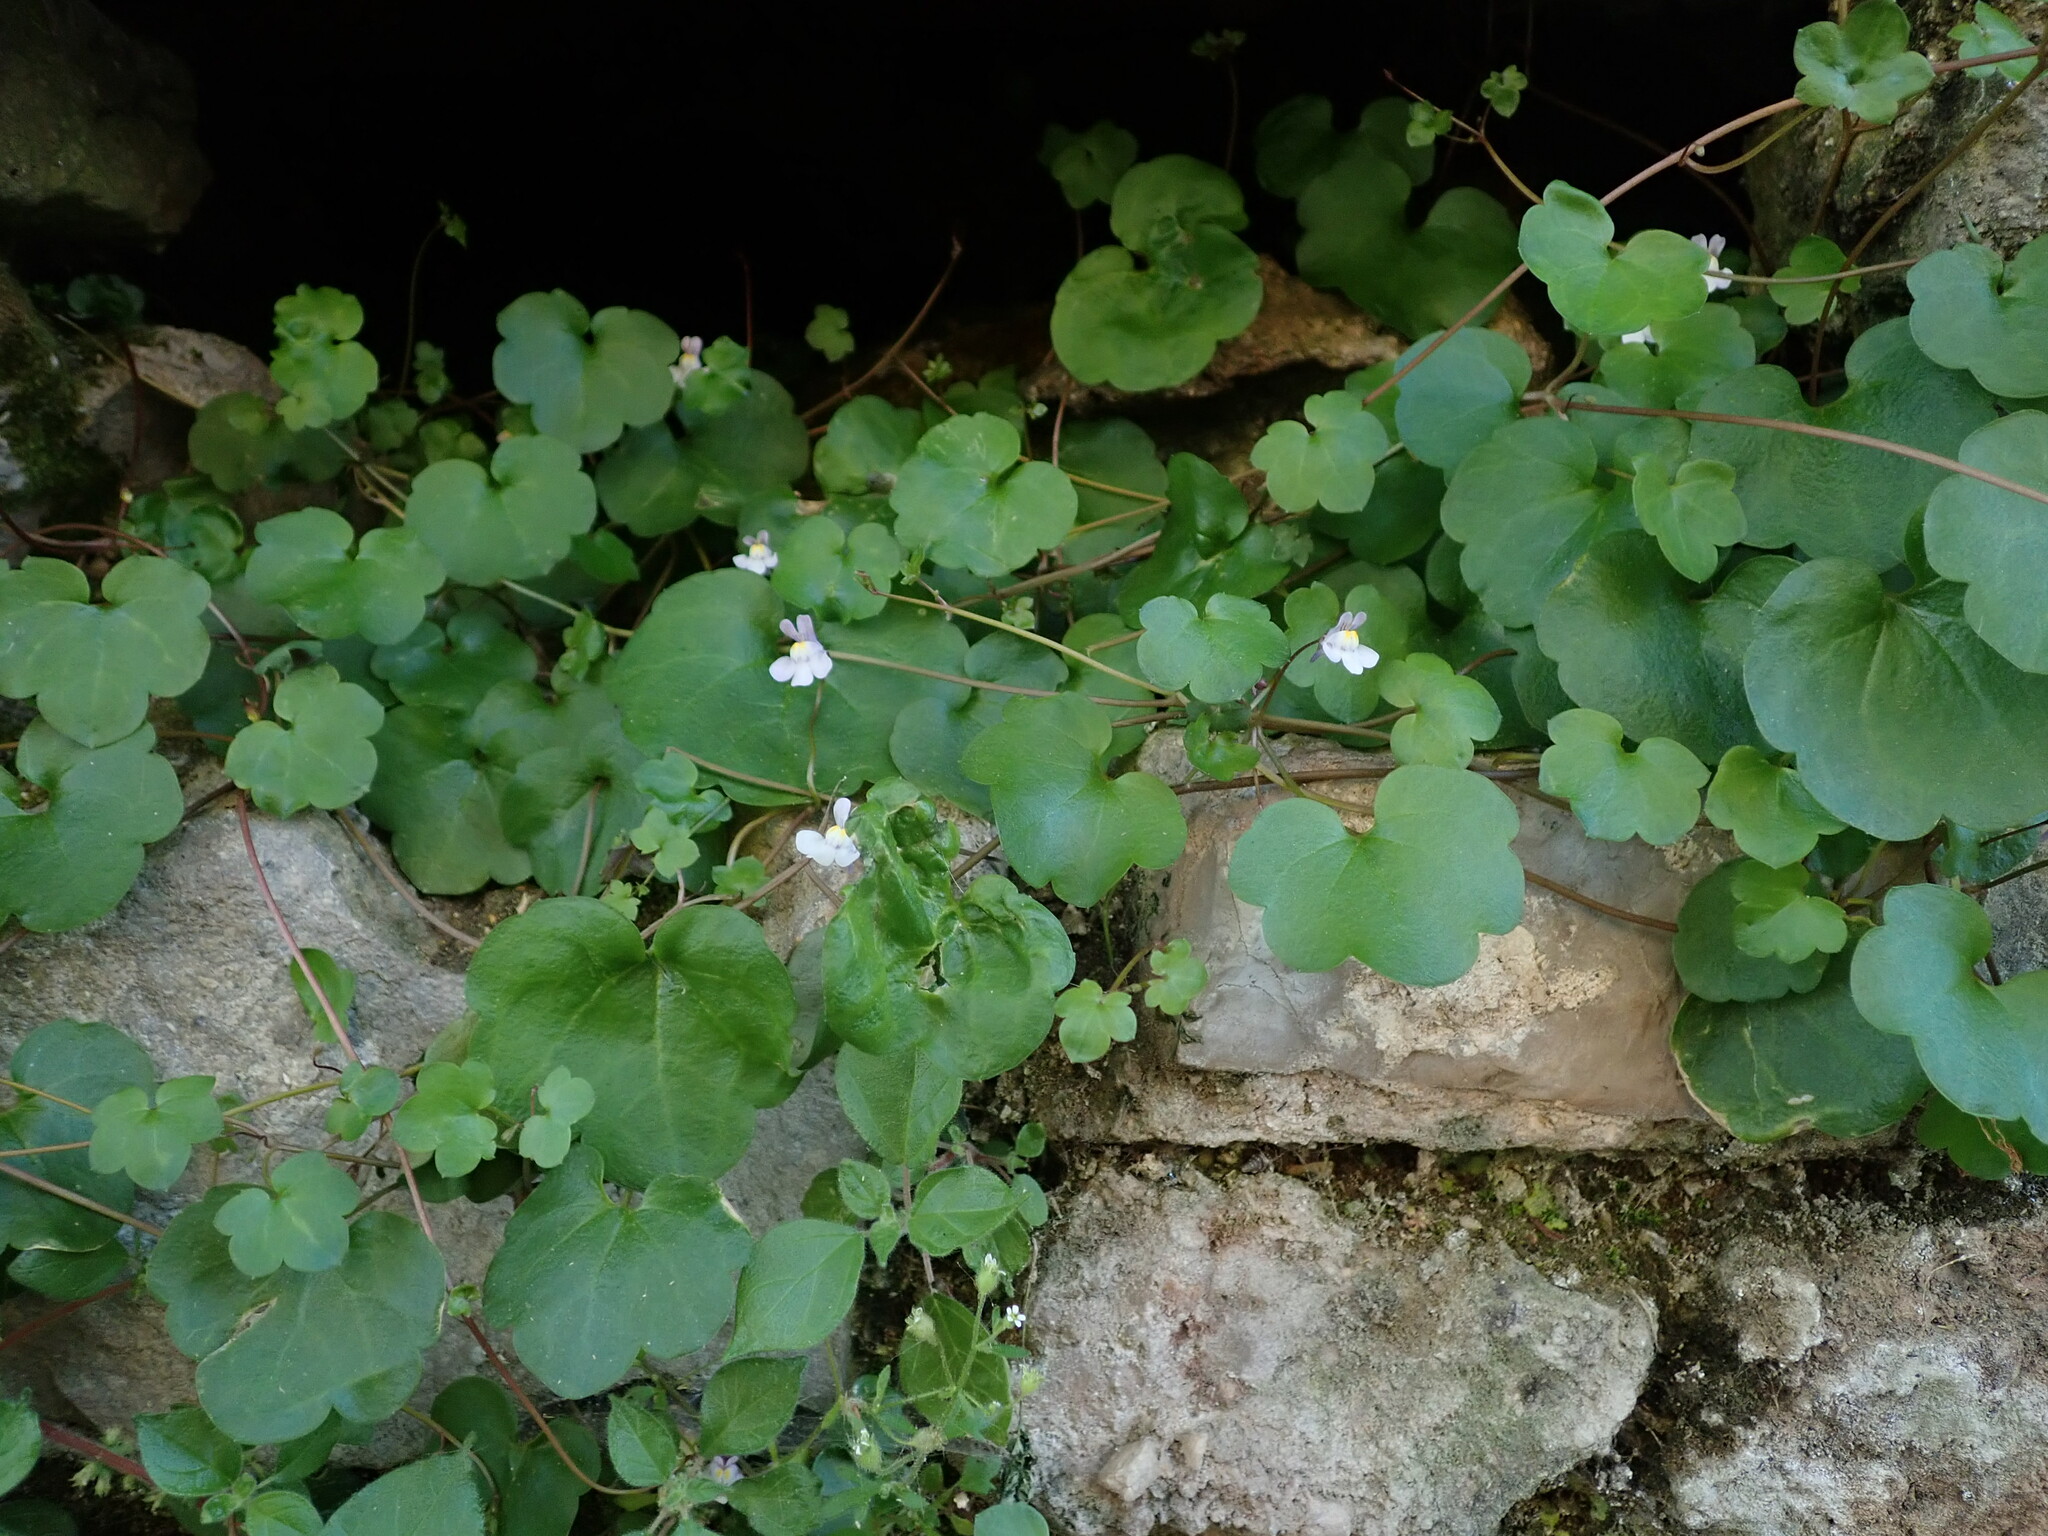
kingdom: Plantae
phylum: Tracheophyta
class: Magnoliopsida
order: Lamiales
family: Plantaginaceae
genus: Cymbalaria
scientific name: Cymbalaria muralis
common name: Ivy-leaved toadflax
